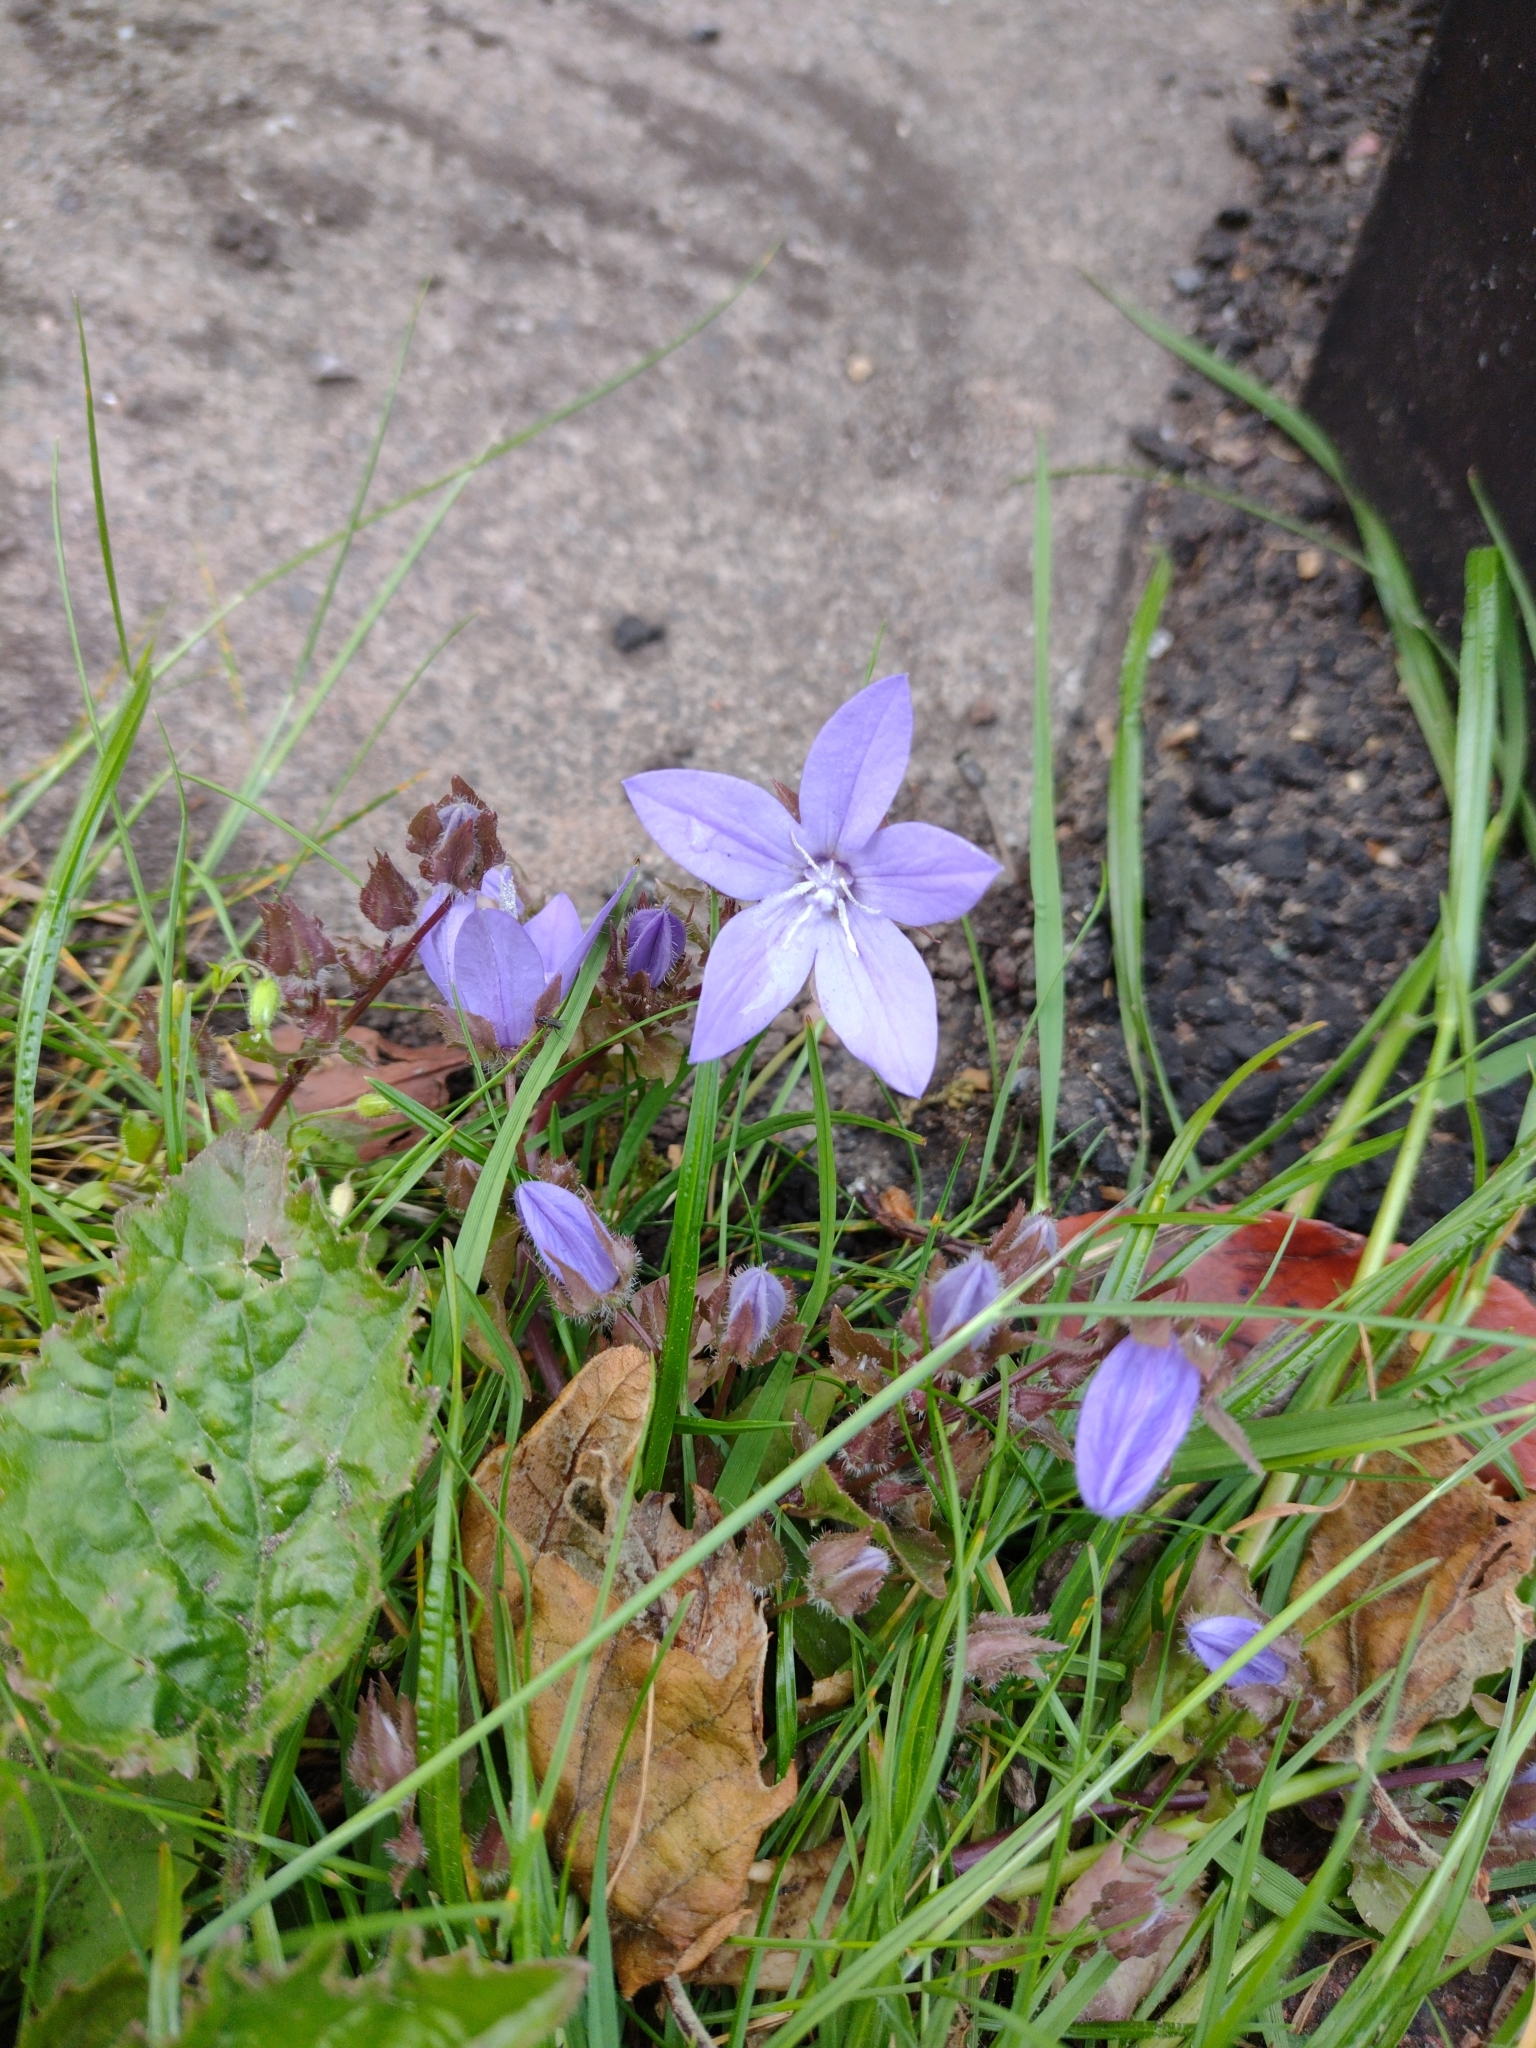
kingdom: Plantae
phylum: Tracheophyta
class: Magnoliopsida
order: Asterales
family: Campanulaceae
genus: Campanula
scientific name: Campanula poscharskyana
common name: Trailing bellflower
